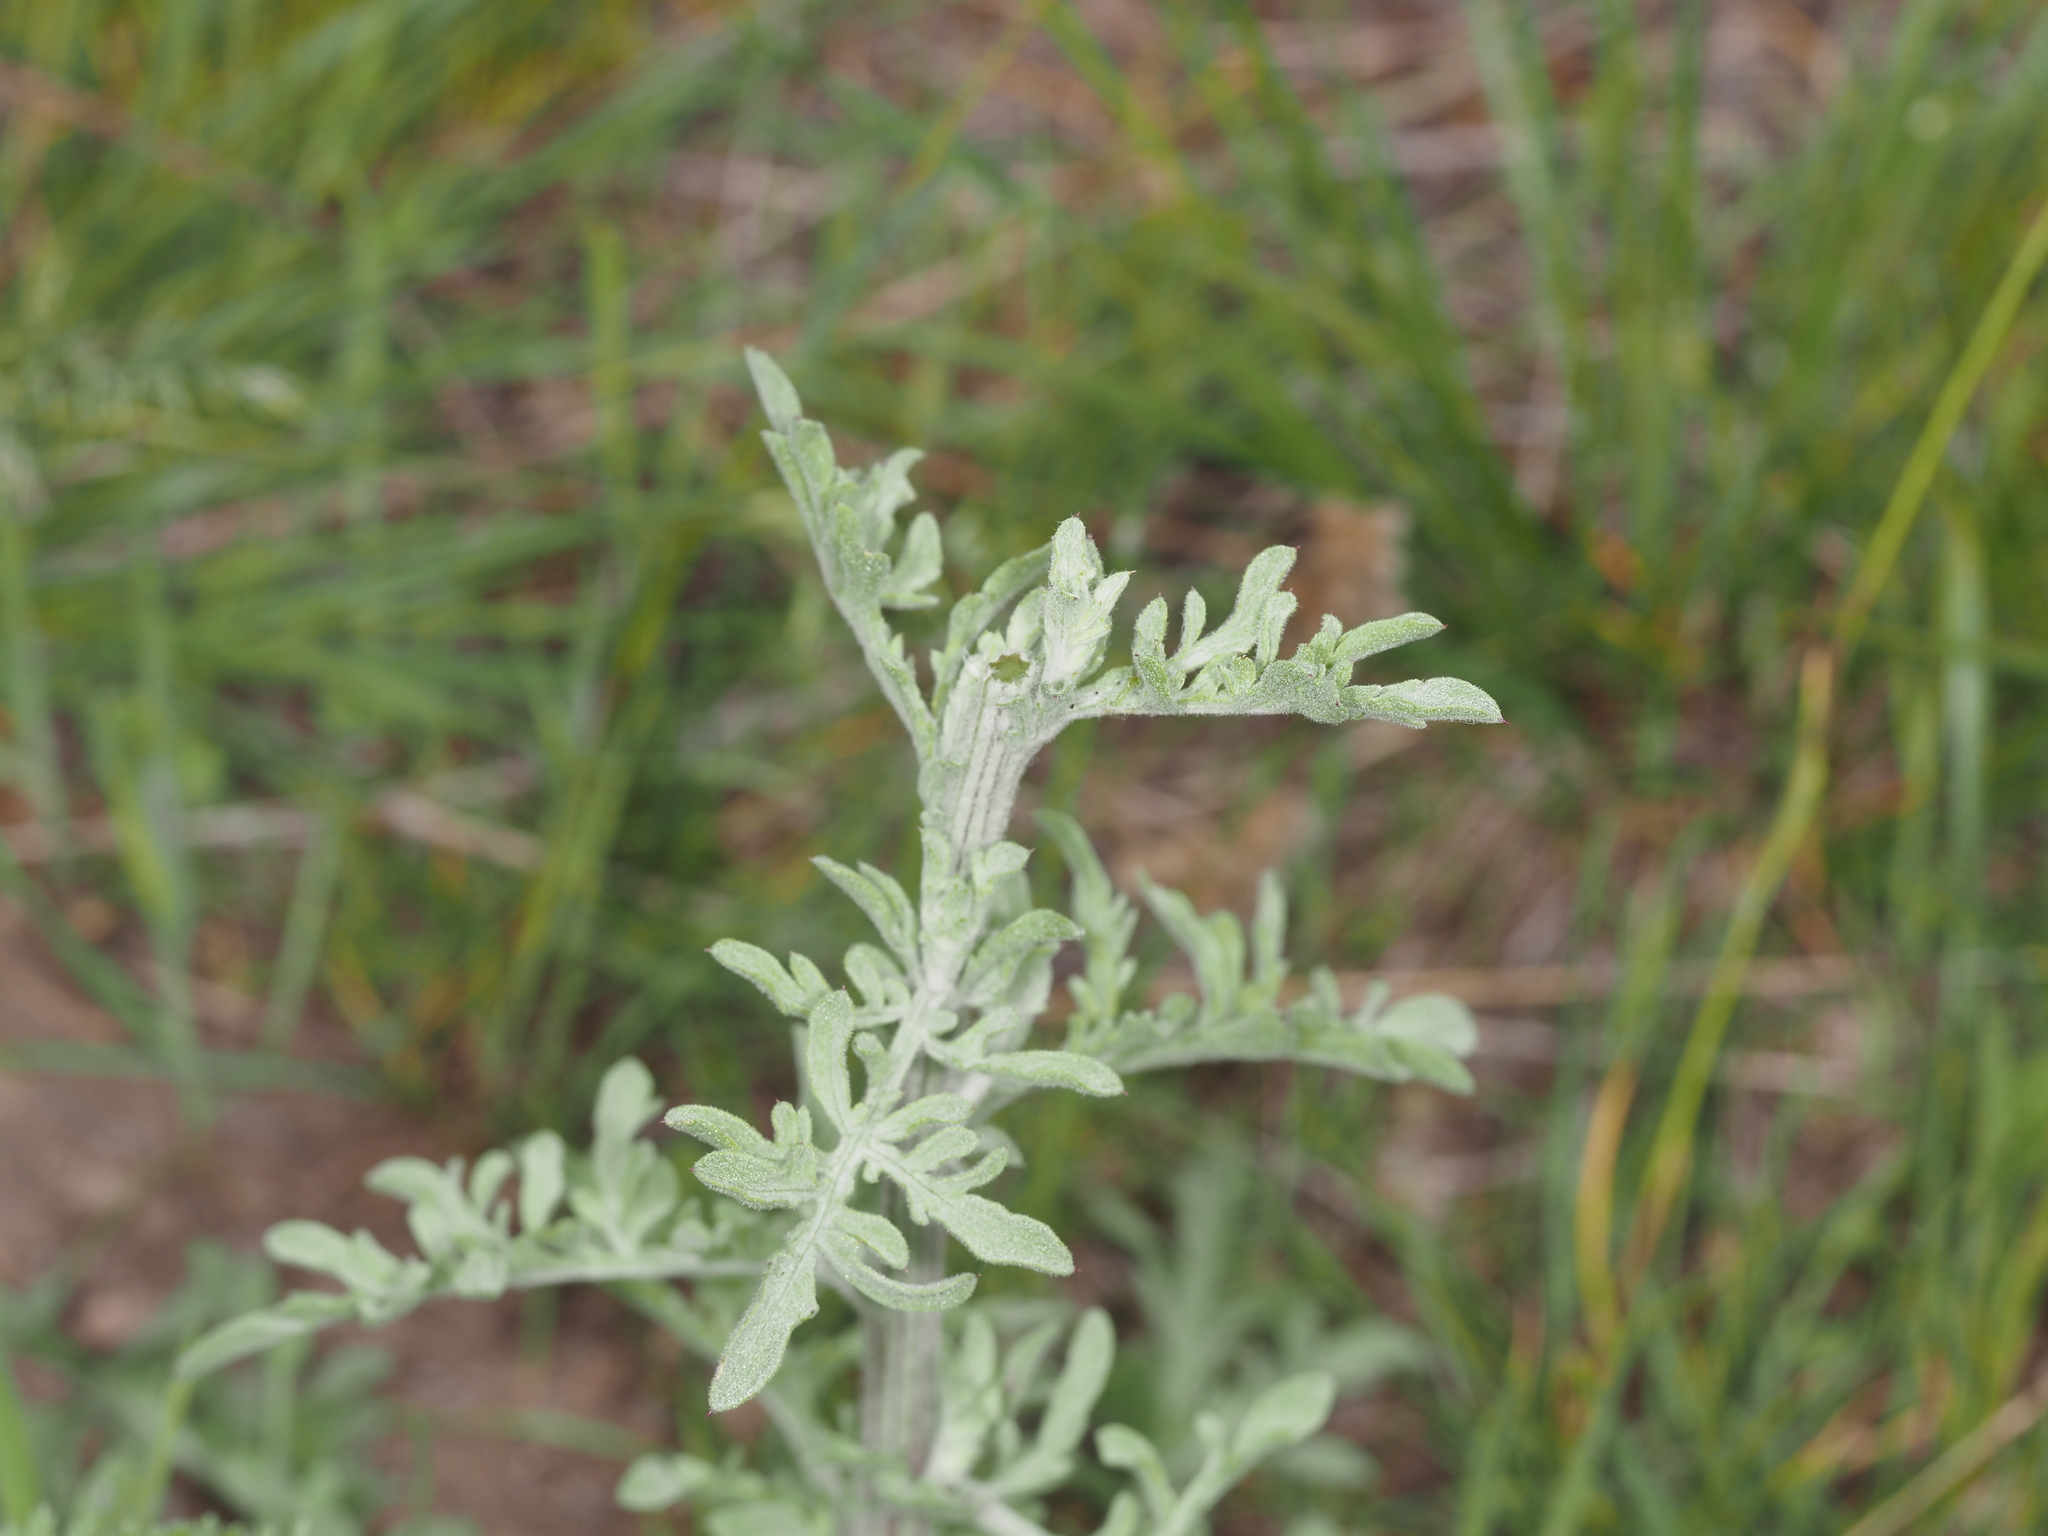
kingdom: Plantae
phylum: Tracheophyta
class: Magnoliopsida
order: Asterales
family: Asteraceae
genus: Centaurea
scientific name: Centaurea diffusa
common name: Diffuse knapweed
